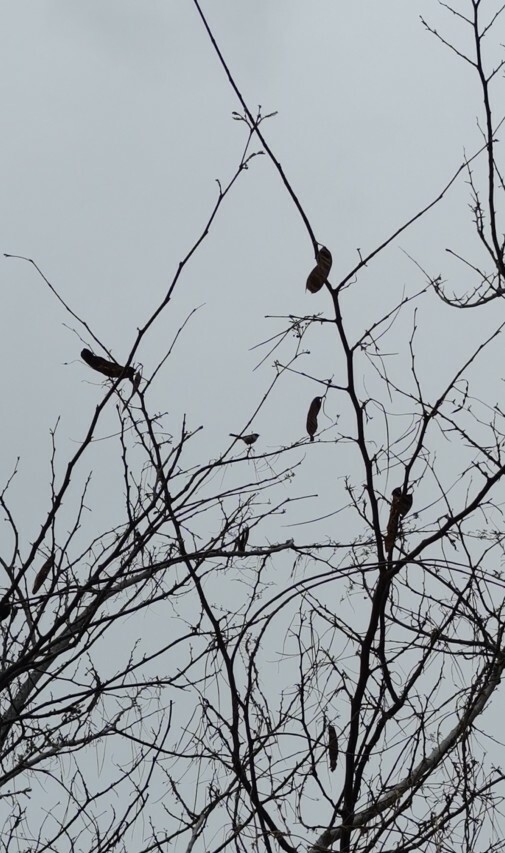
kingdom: Animalia
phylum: Chordata
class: Aves
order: Passeriformes
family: Aegithalidae
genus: Psaltriparus
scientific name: Psaltriparus minimus
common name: American bushtit
